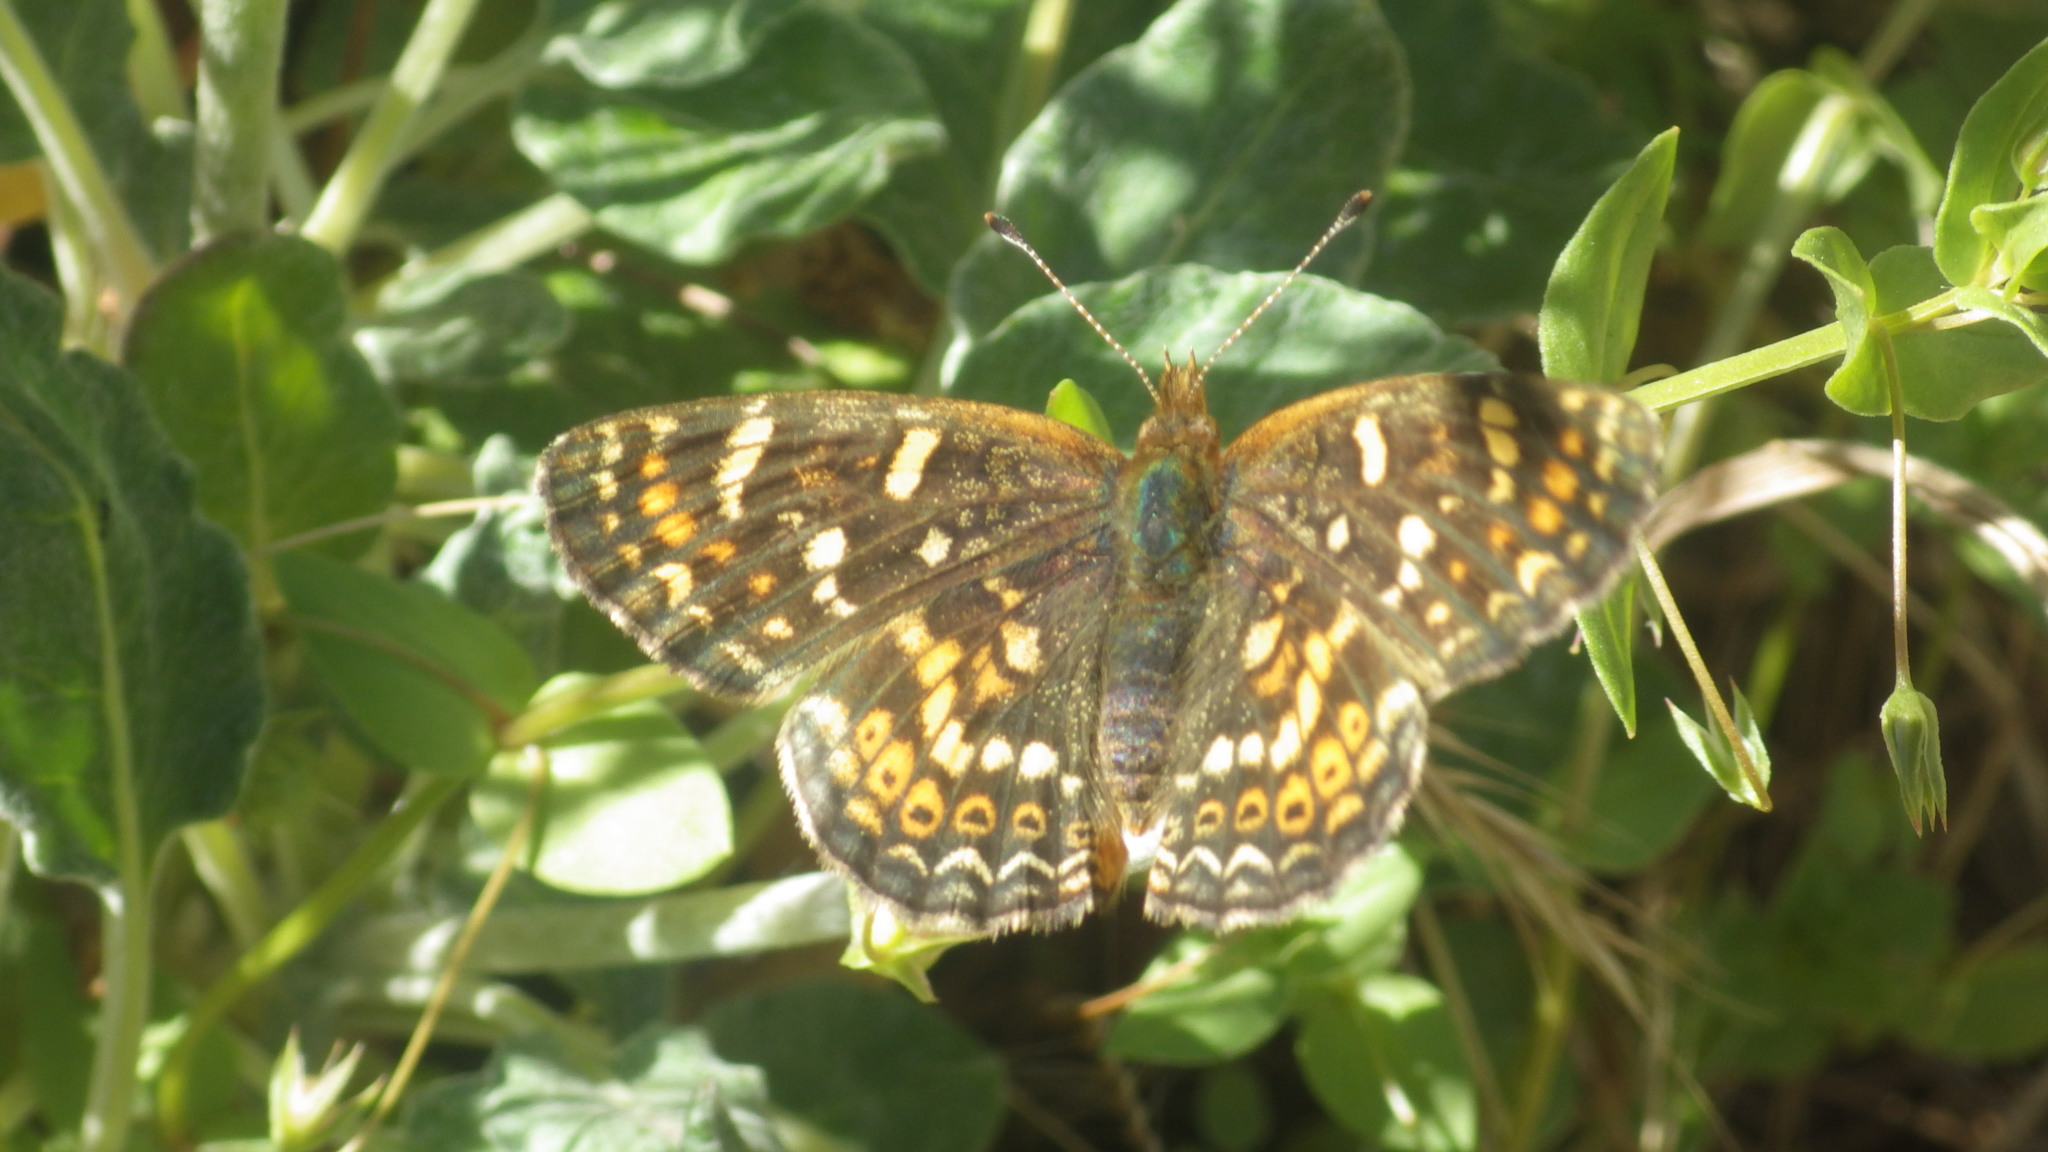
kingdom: Animalia
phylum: Arthropoda
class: Insecta
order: Lepidoptera
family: Nymphalidae
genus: Phyciodes
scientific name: Phyciodes tharos
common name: Pearl crescent
